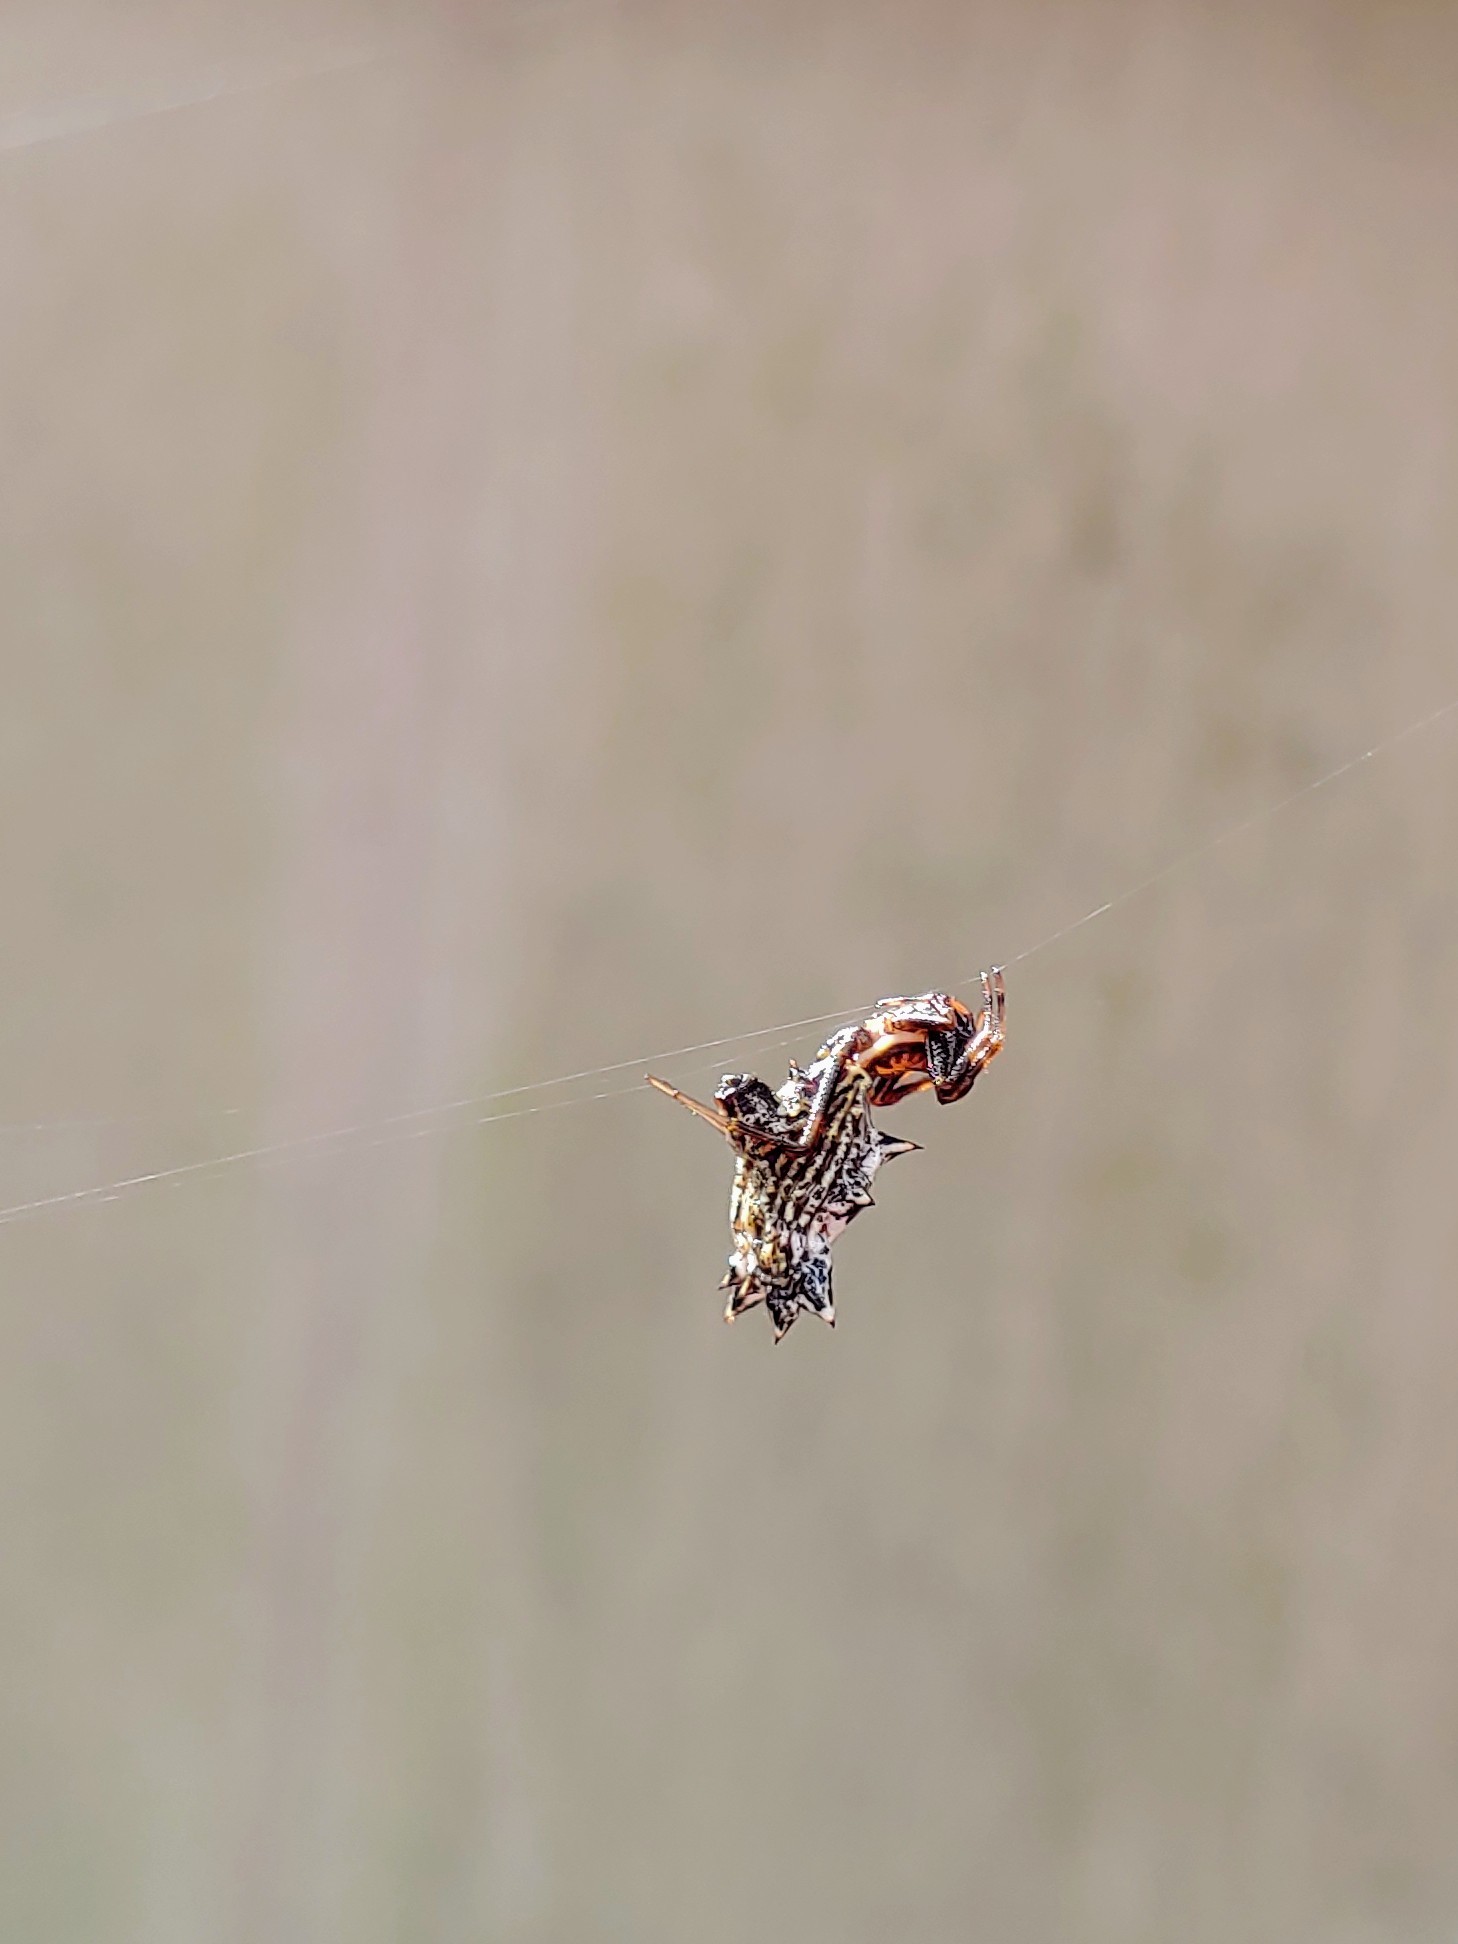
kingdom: Animalia
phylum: Arthropoda
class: Arachnida
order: Araneae
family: Araneidae
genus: Micrathena
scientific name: Micrathena gracilis
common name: Orb weavers
